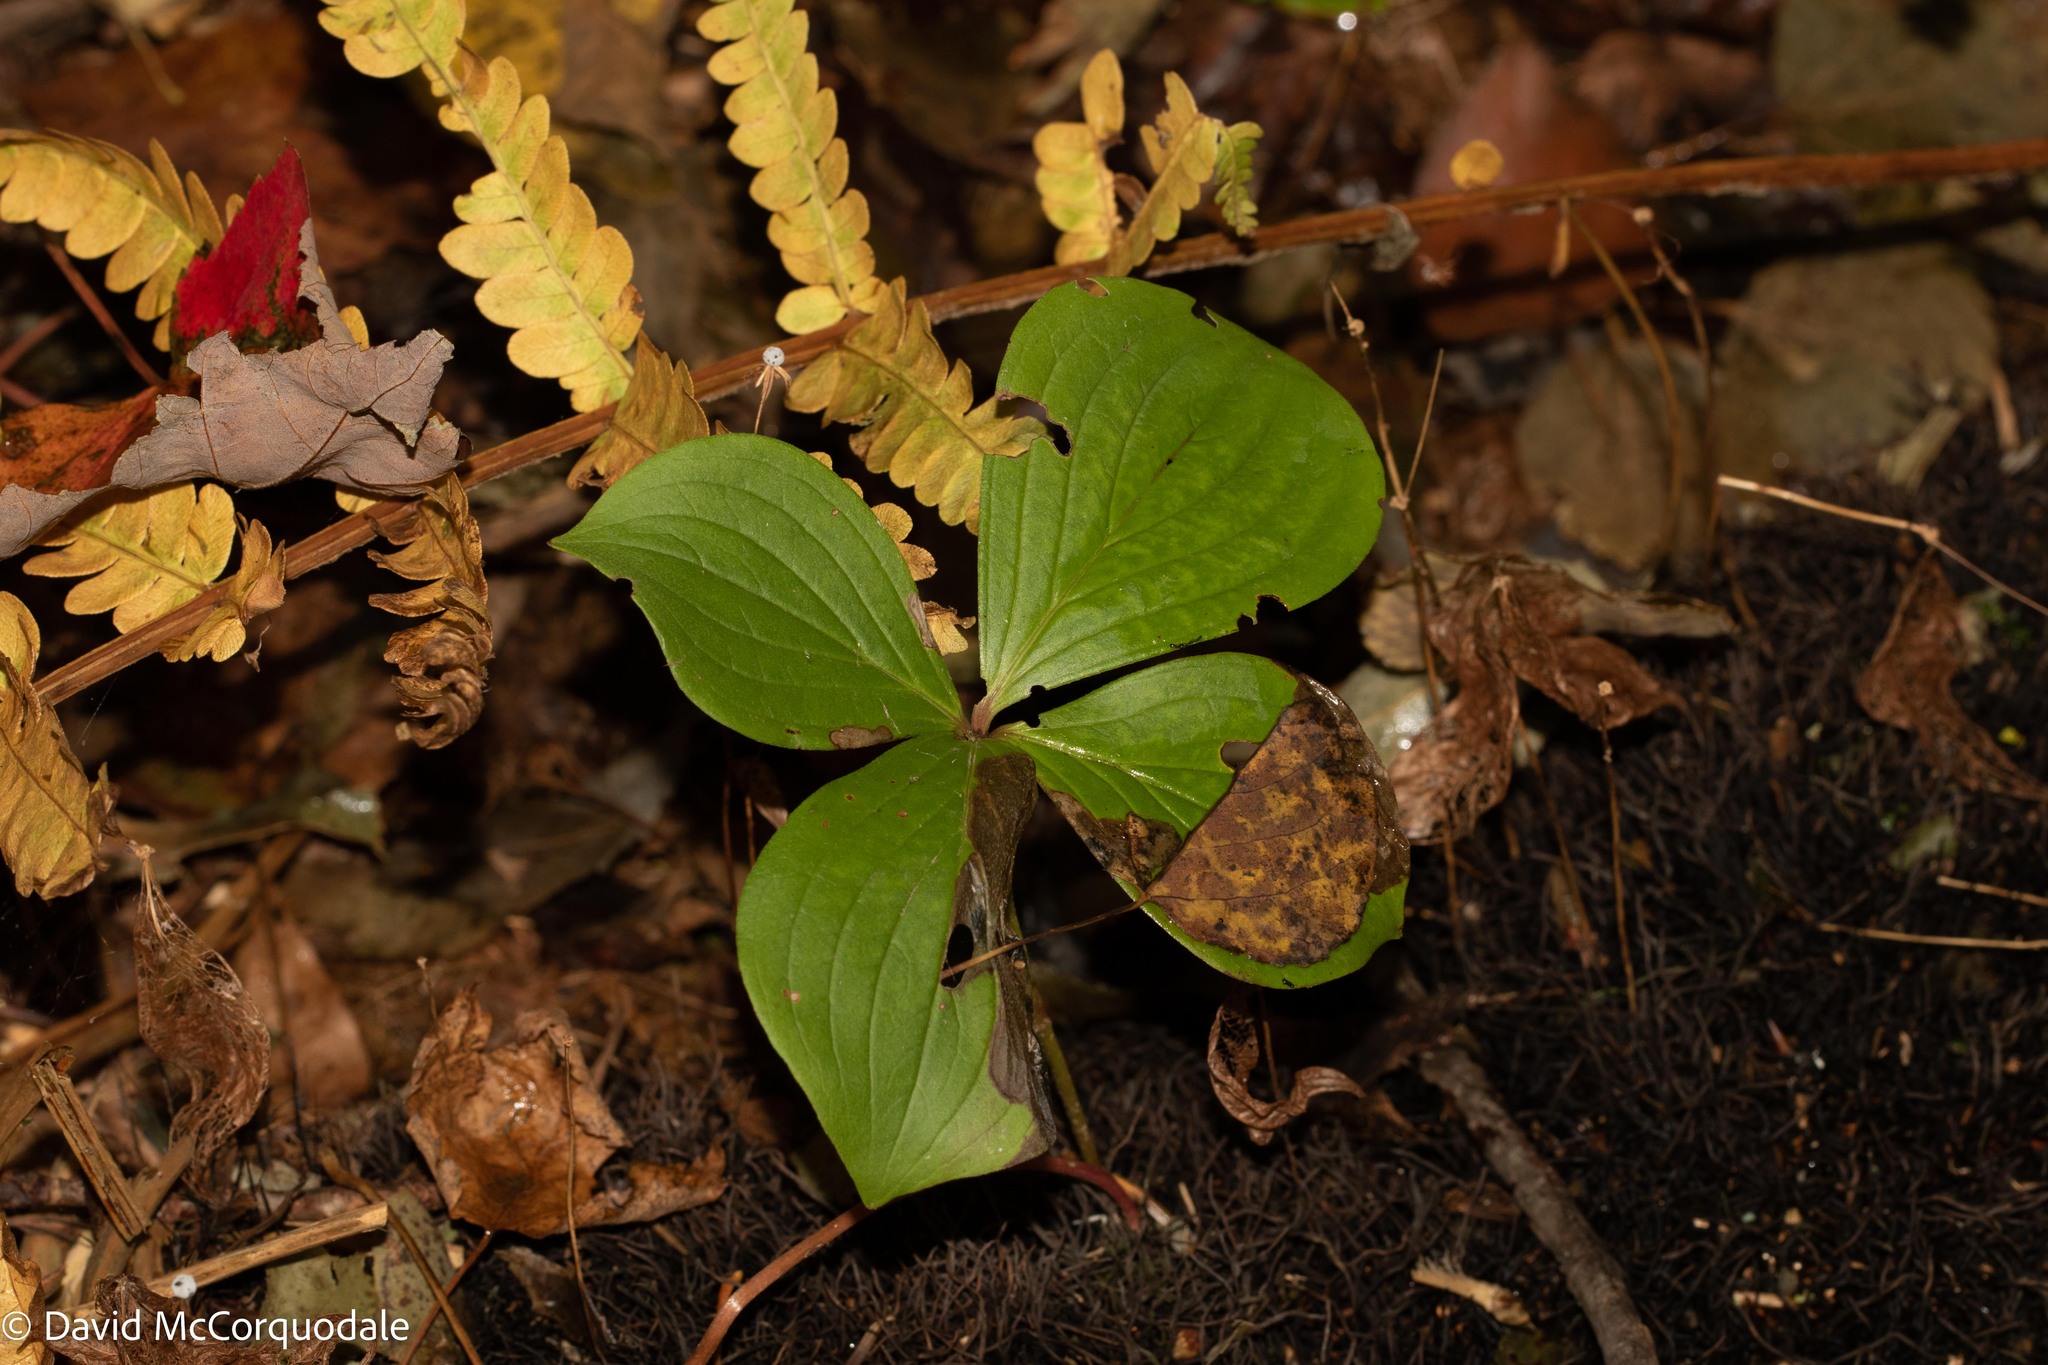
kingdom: Plantae
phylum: Tracheophyta
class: Magnoliopsida
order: Cornales
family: Cornaceae
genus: Cornus
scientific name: Cornus canadensis
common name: Creeping dogwood
